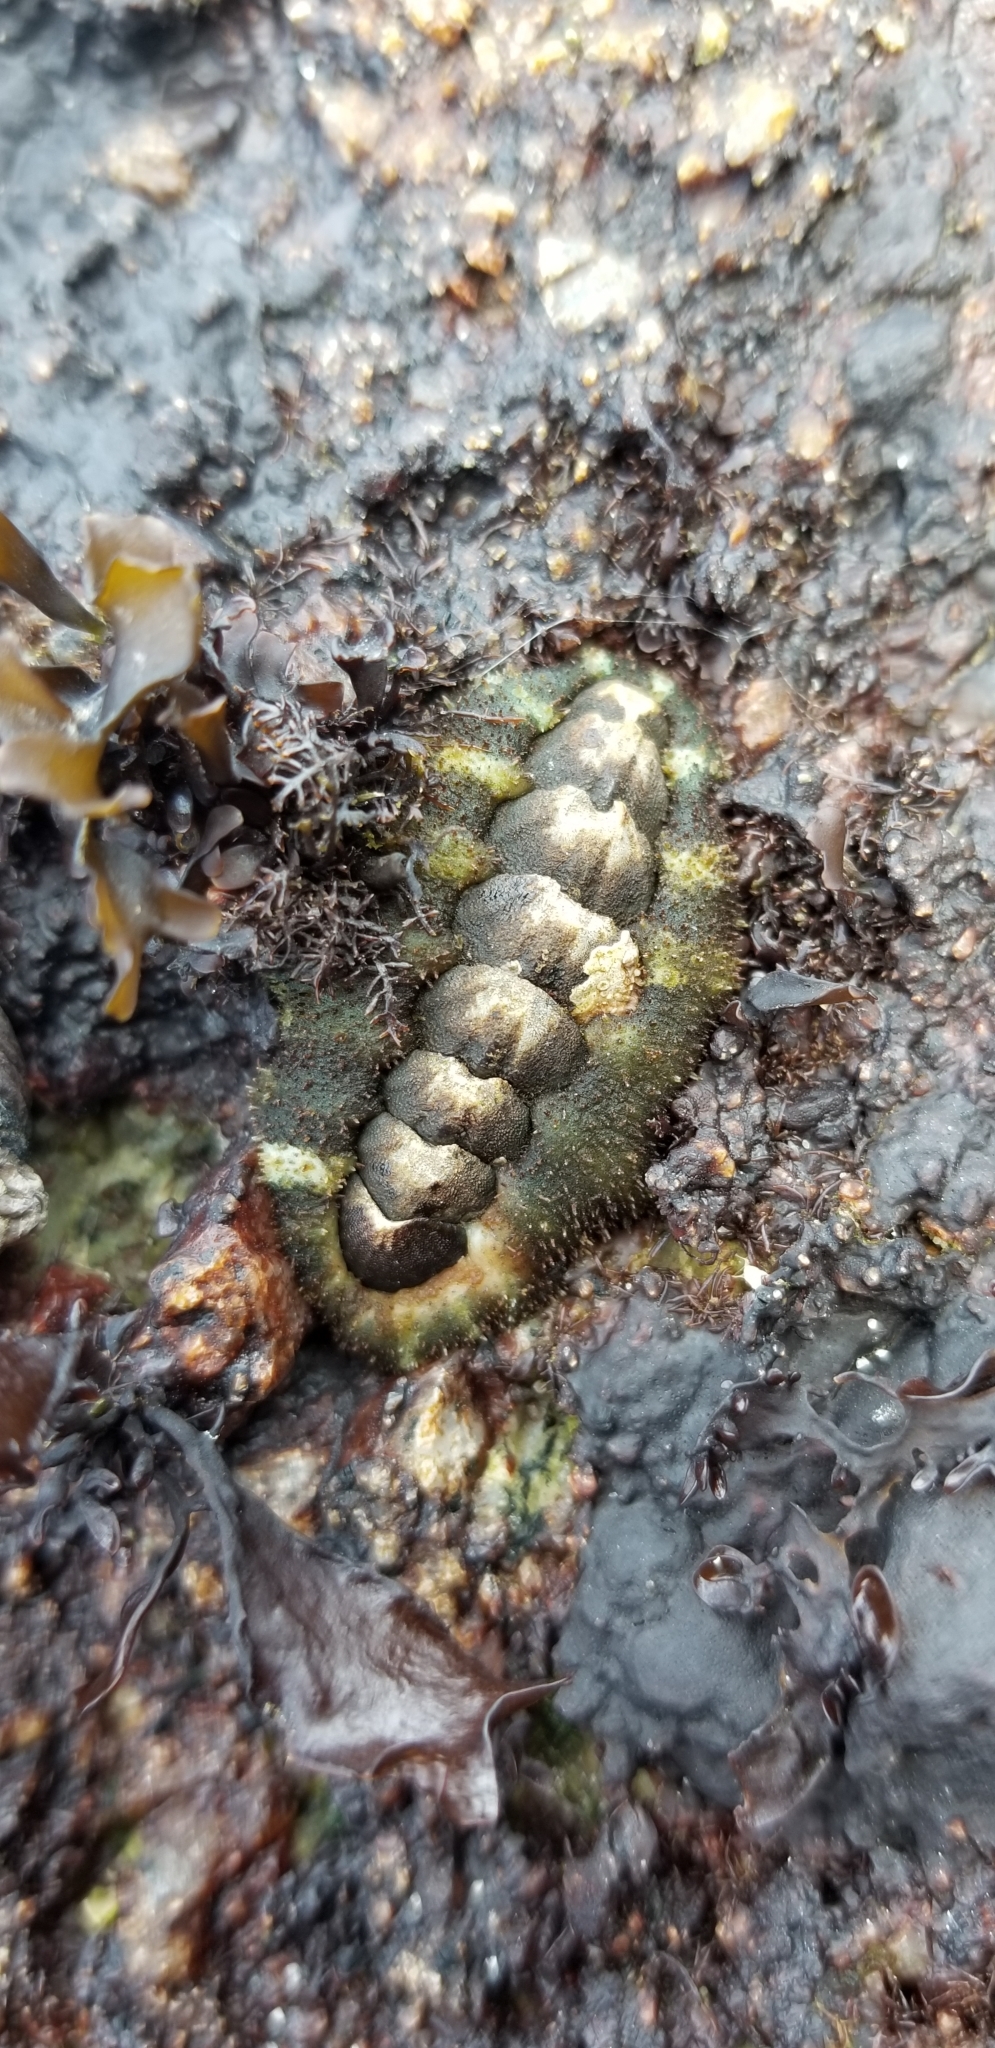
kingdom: Animalia
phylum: Mollusca
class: Polyplacophora
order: Chitonida
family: Tonicellidae
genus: Nuttallina
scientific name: Nuttallina californica
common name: California nuttall chiton
